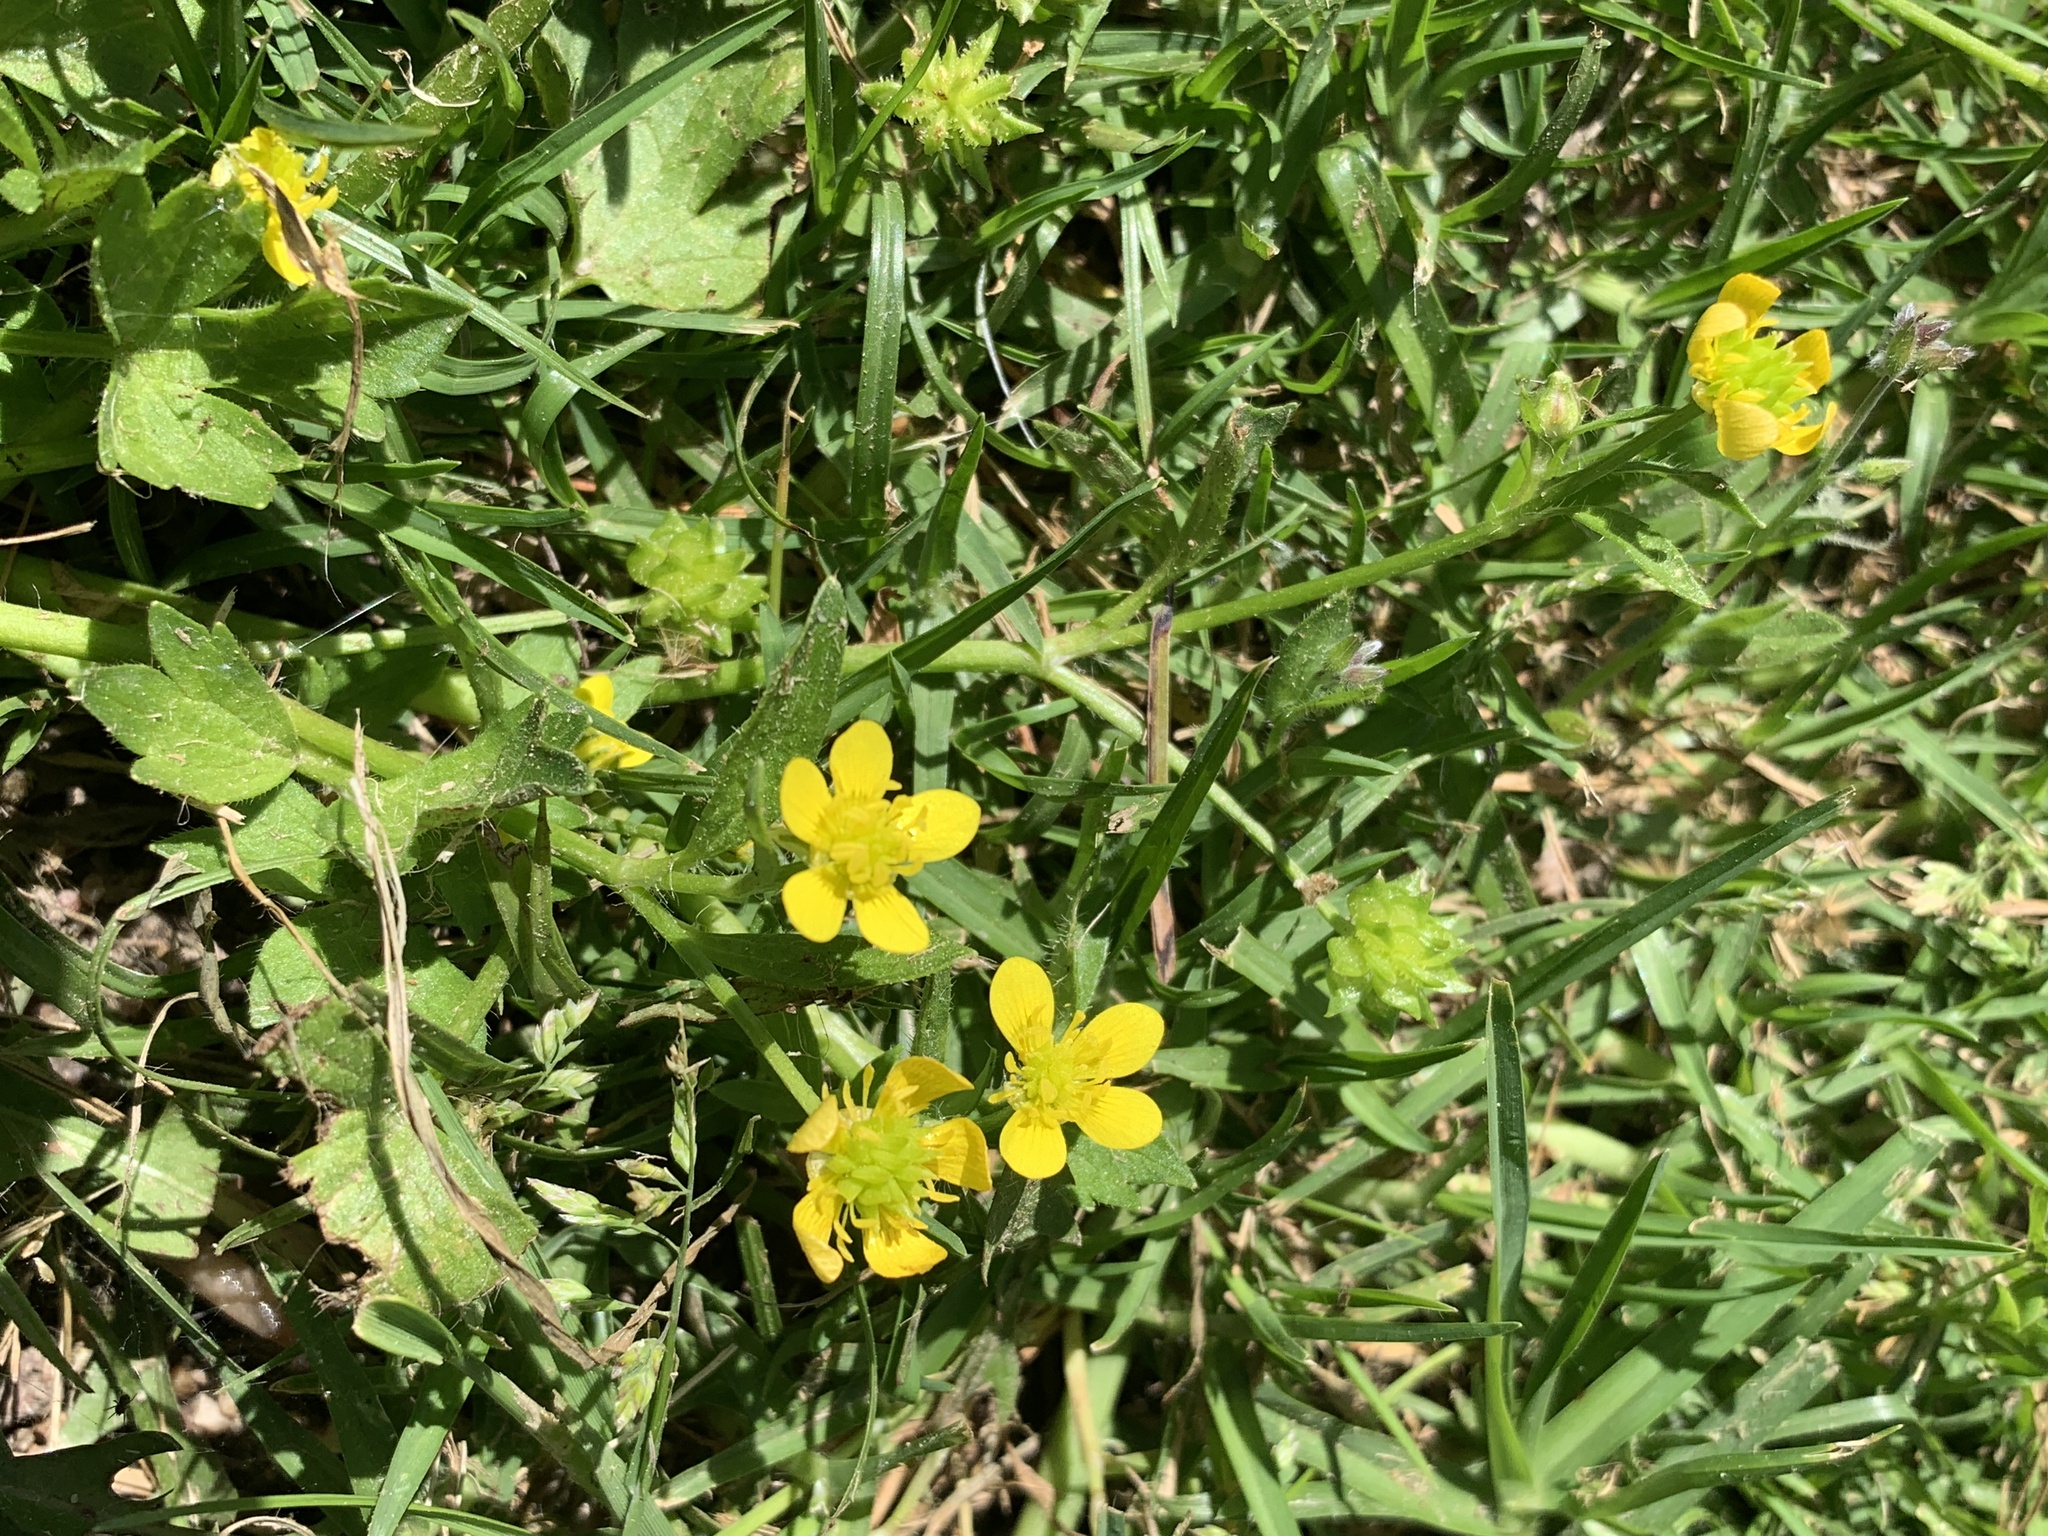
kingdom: Plantae
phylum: Tracheophyta
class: Magnoliopsida
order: Ranunculales
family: Ranunculaceae
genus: Ranunculus
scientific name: Ranunculus muricatus
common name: Rough-fruited buttercup
